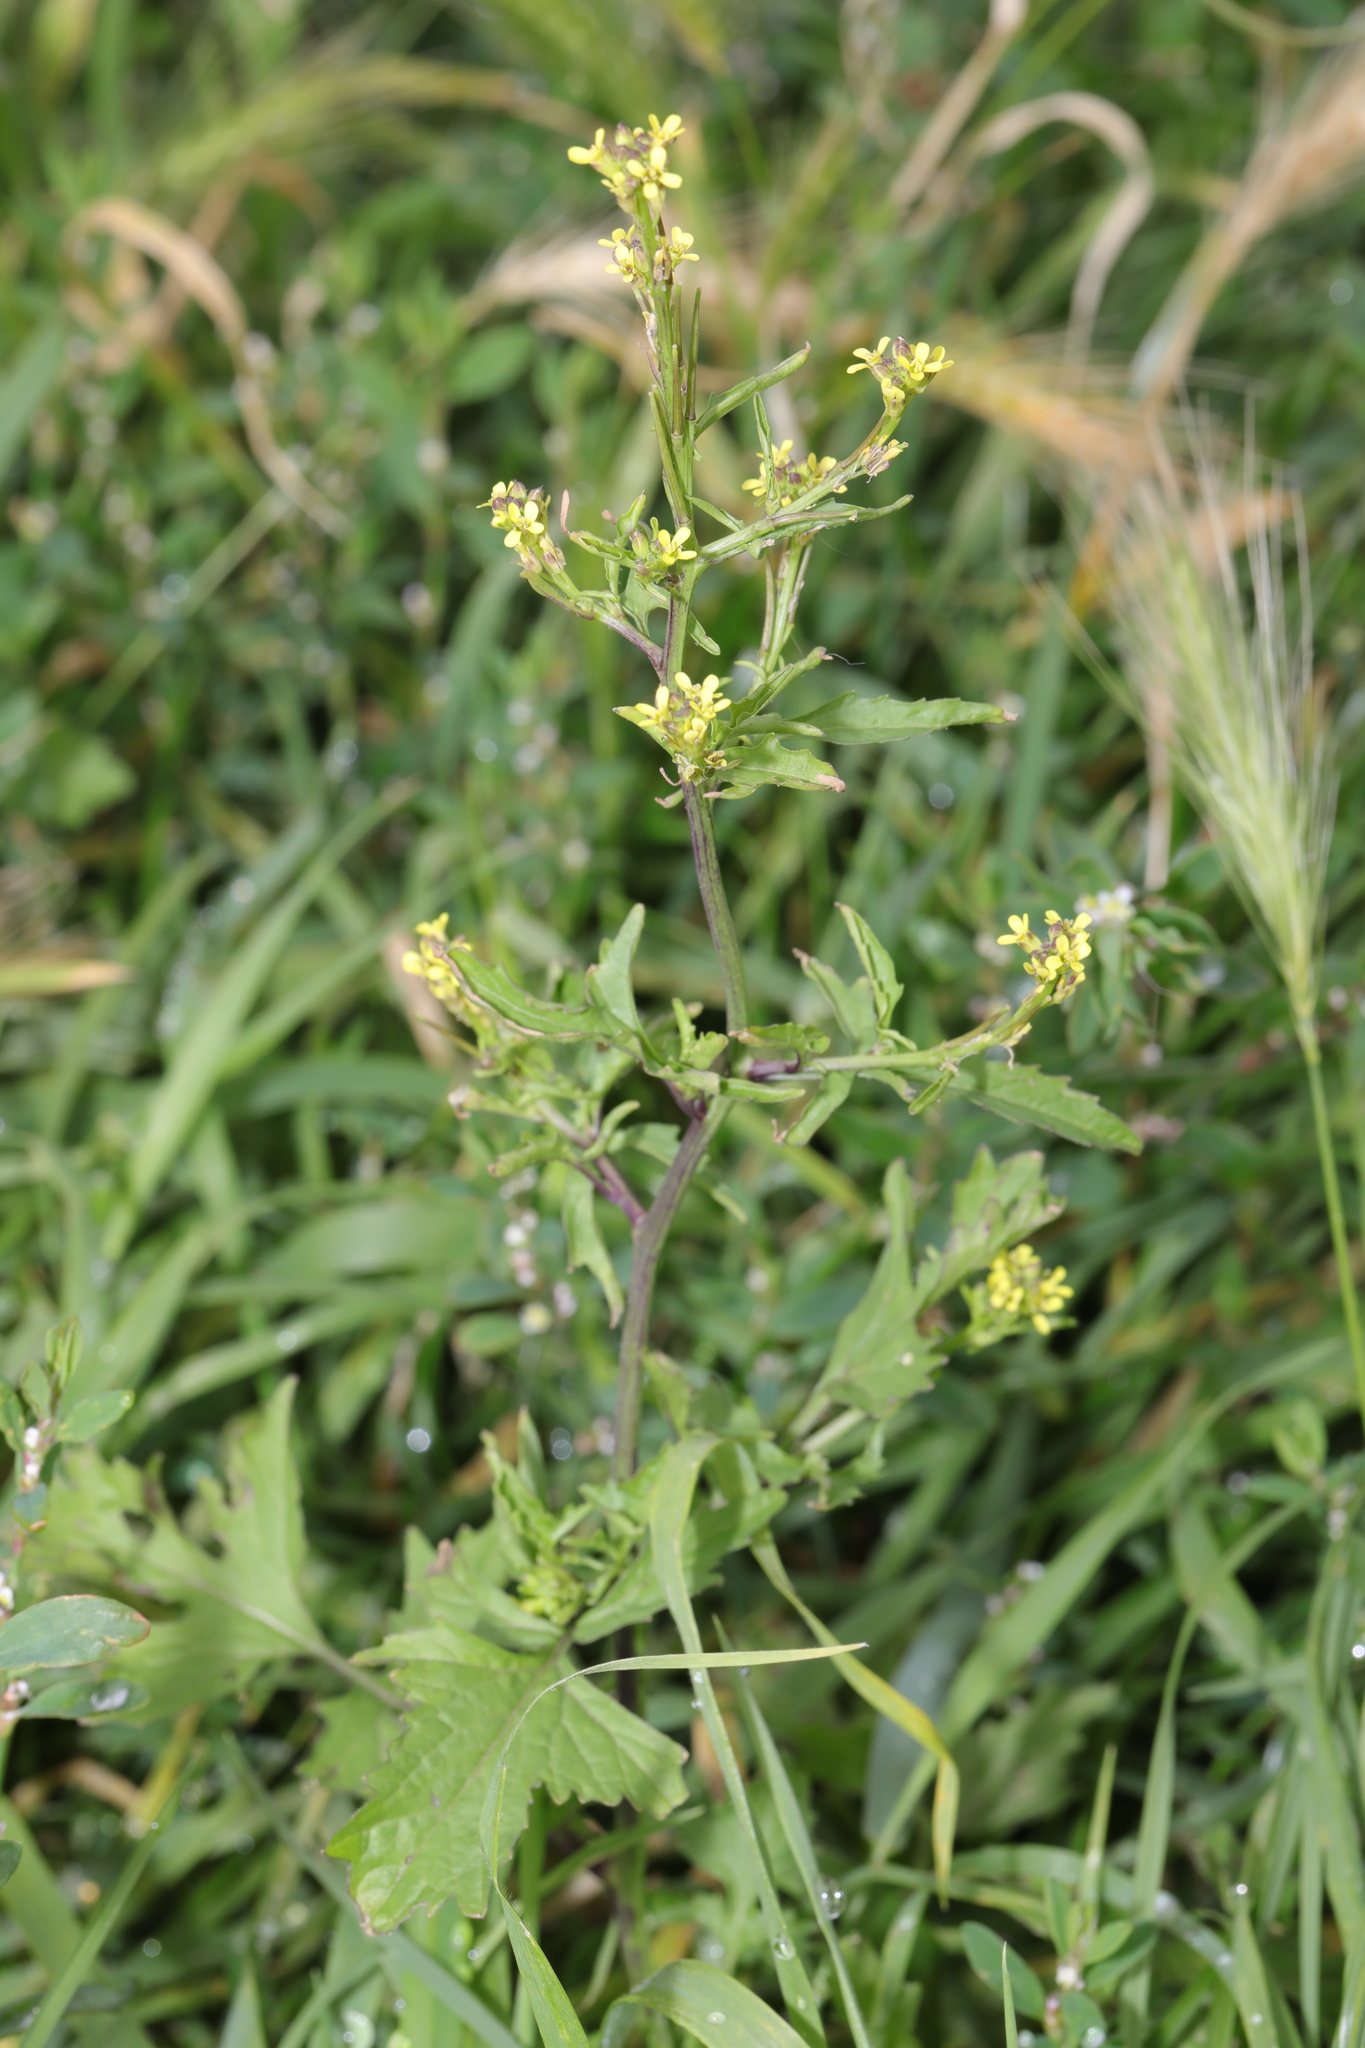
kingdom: Plantae
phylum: Tracheophyta
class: Magnoliopsida
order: Brassicales
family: Brassicaceae
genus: Sisymbrium
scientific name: Sisymbrium officinale
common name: Hedge mustard
